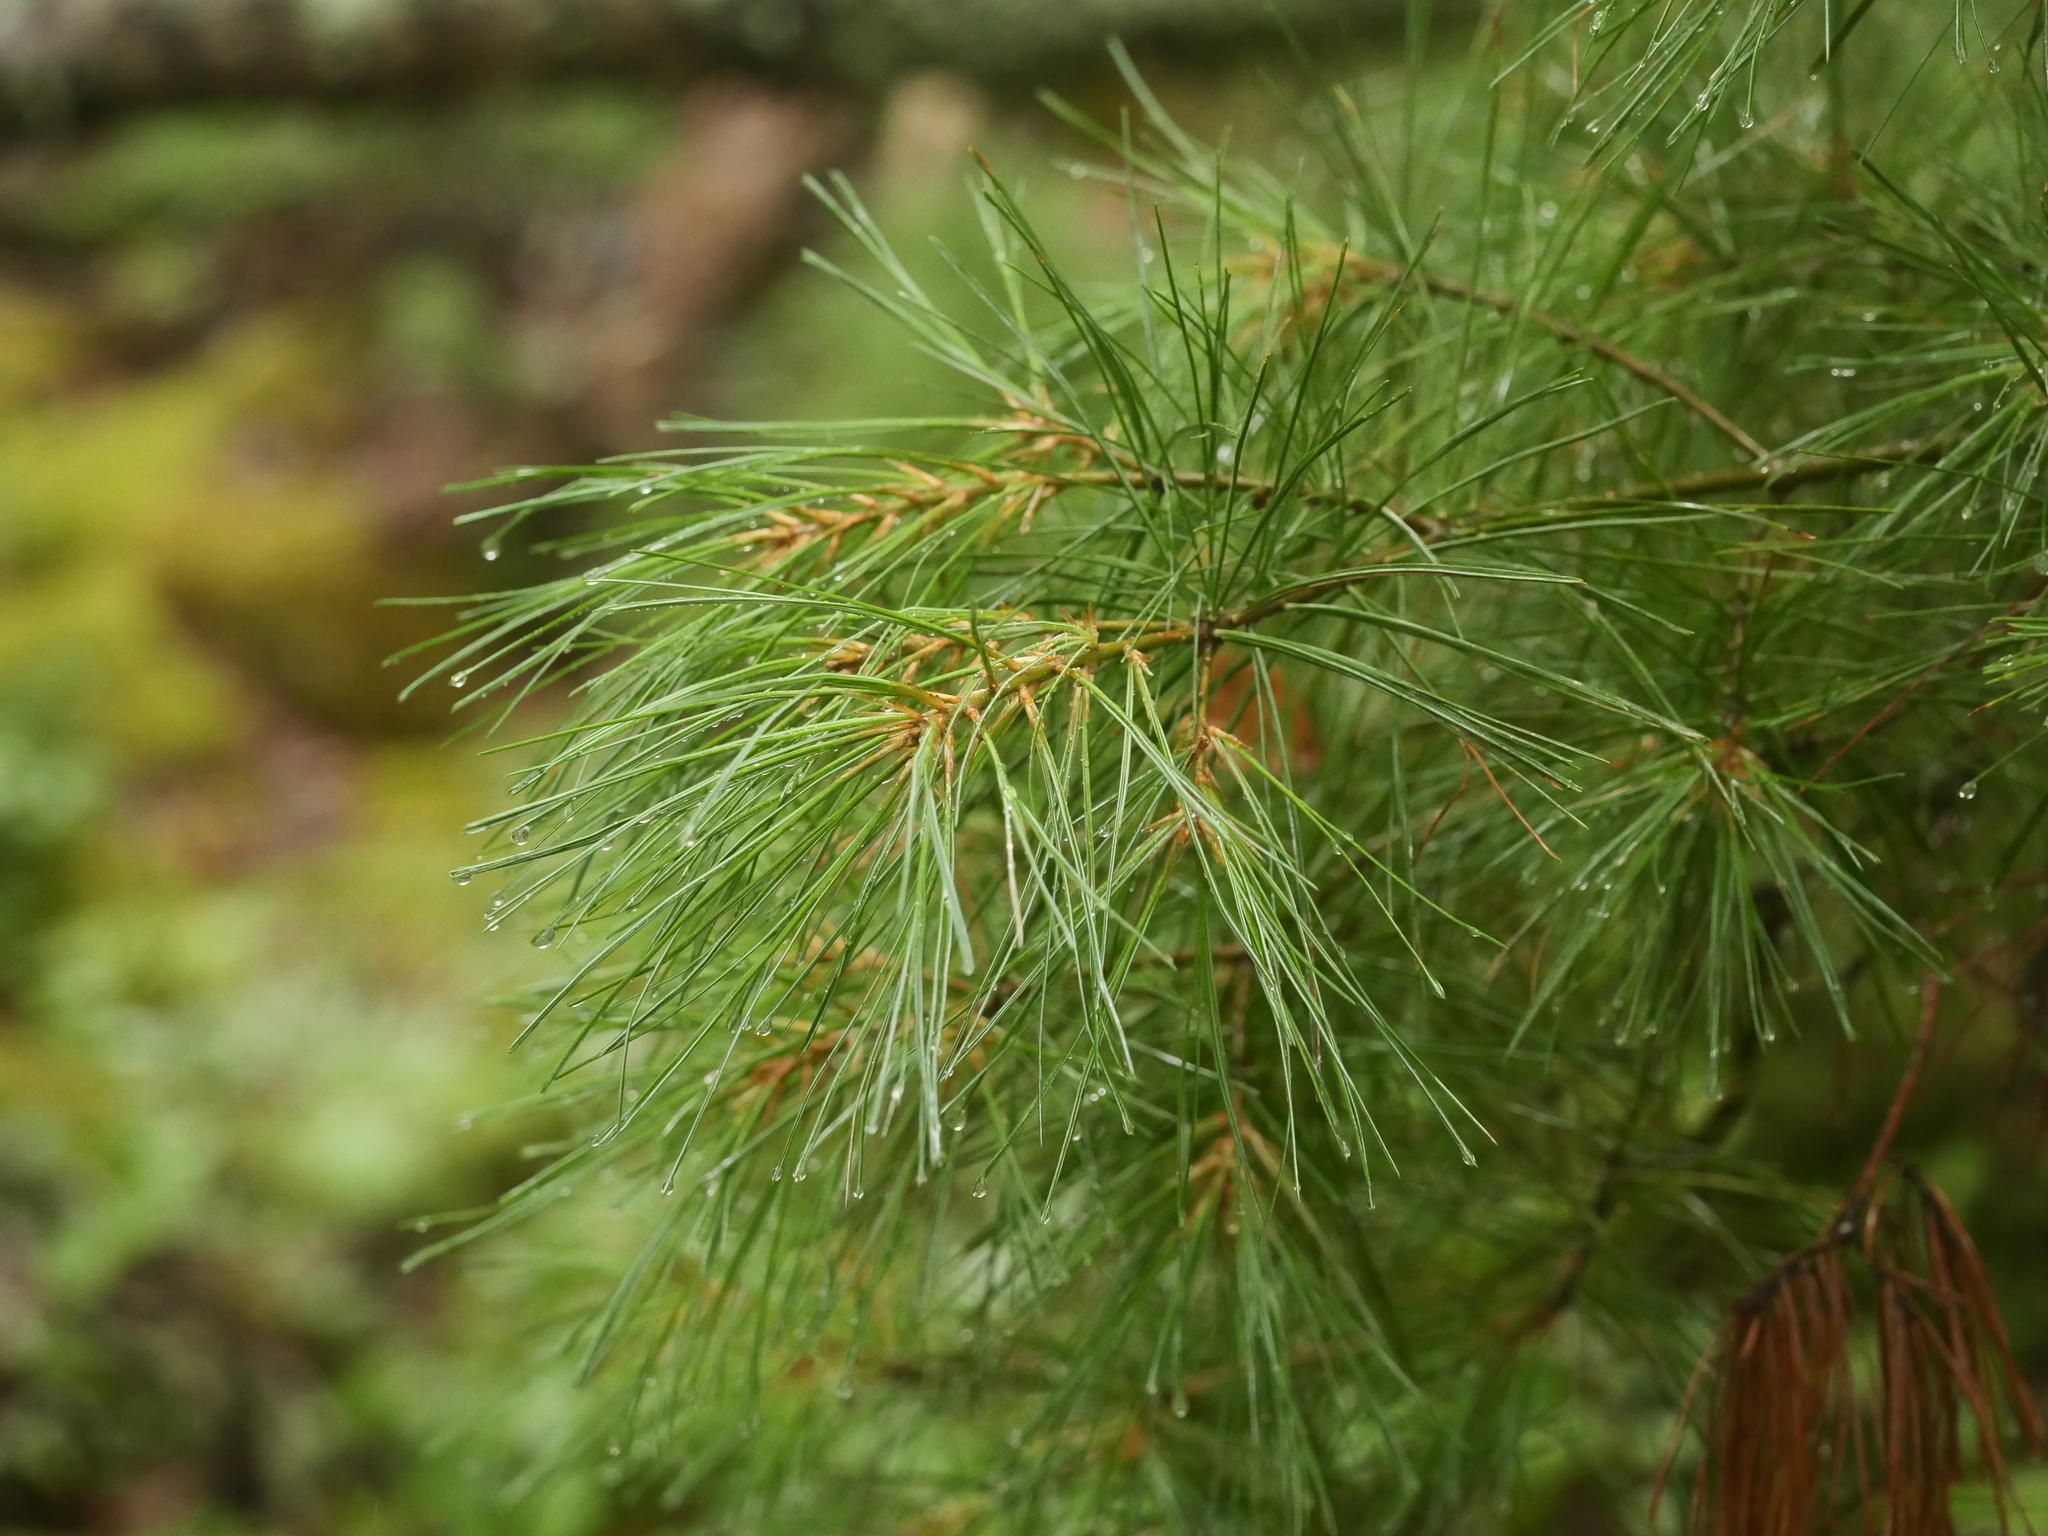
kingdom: Plantae
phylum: Tracheophyta
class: Pinopsida
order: Pinales
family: Pinaceae
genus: Pinus
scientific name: Pinus strobus
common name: Weymouth pine
